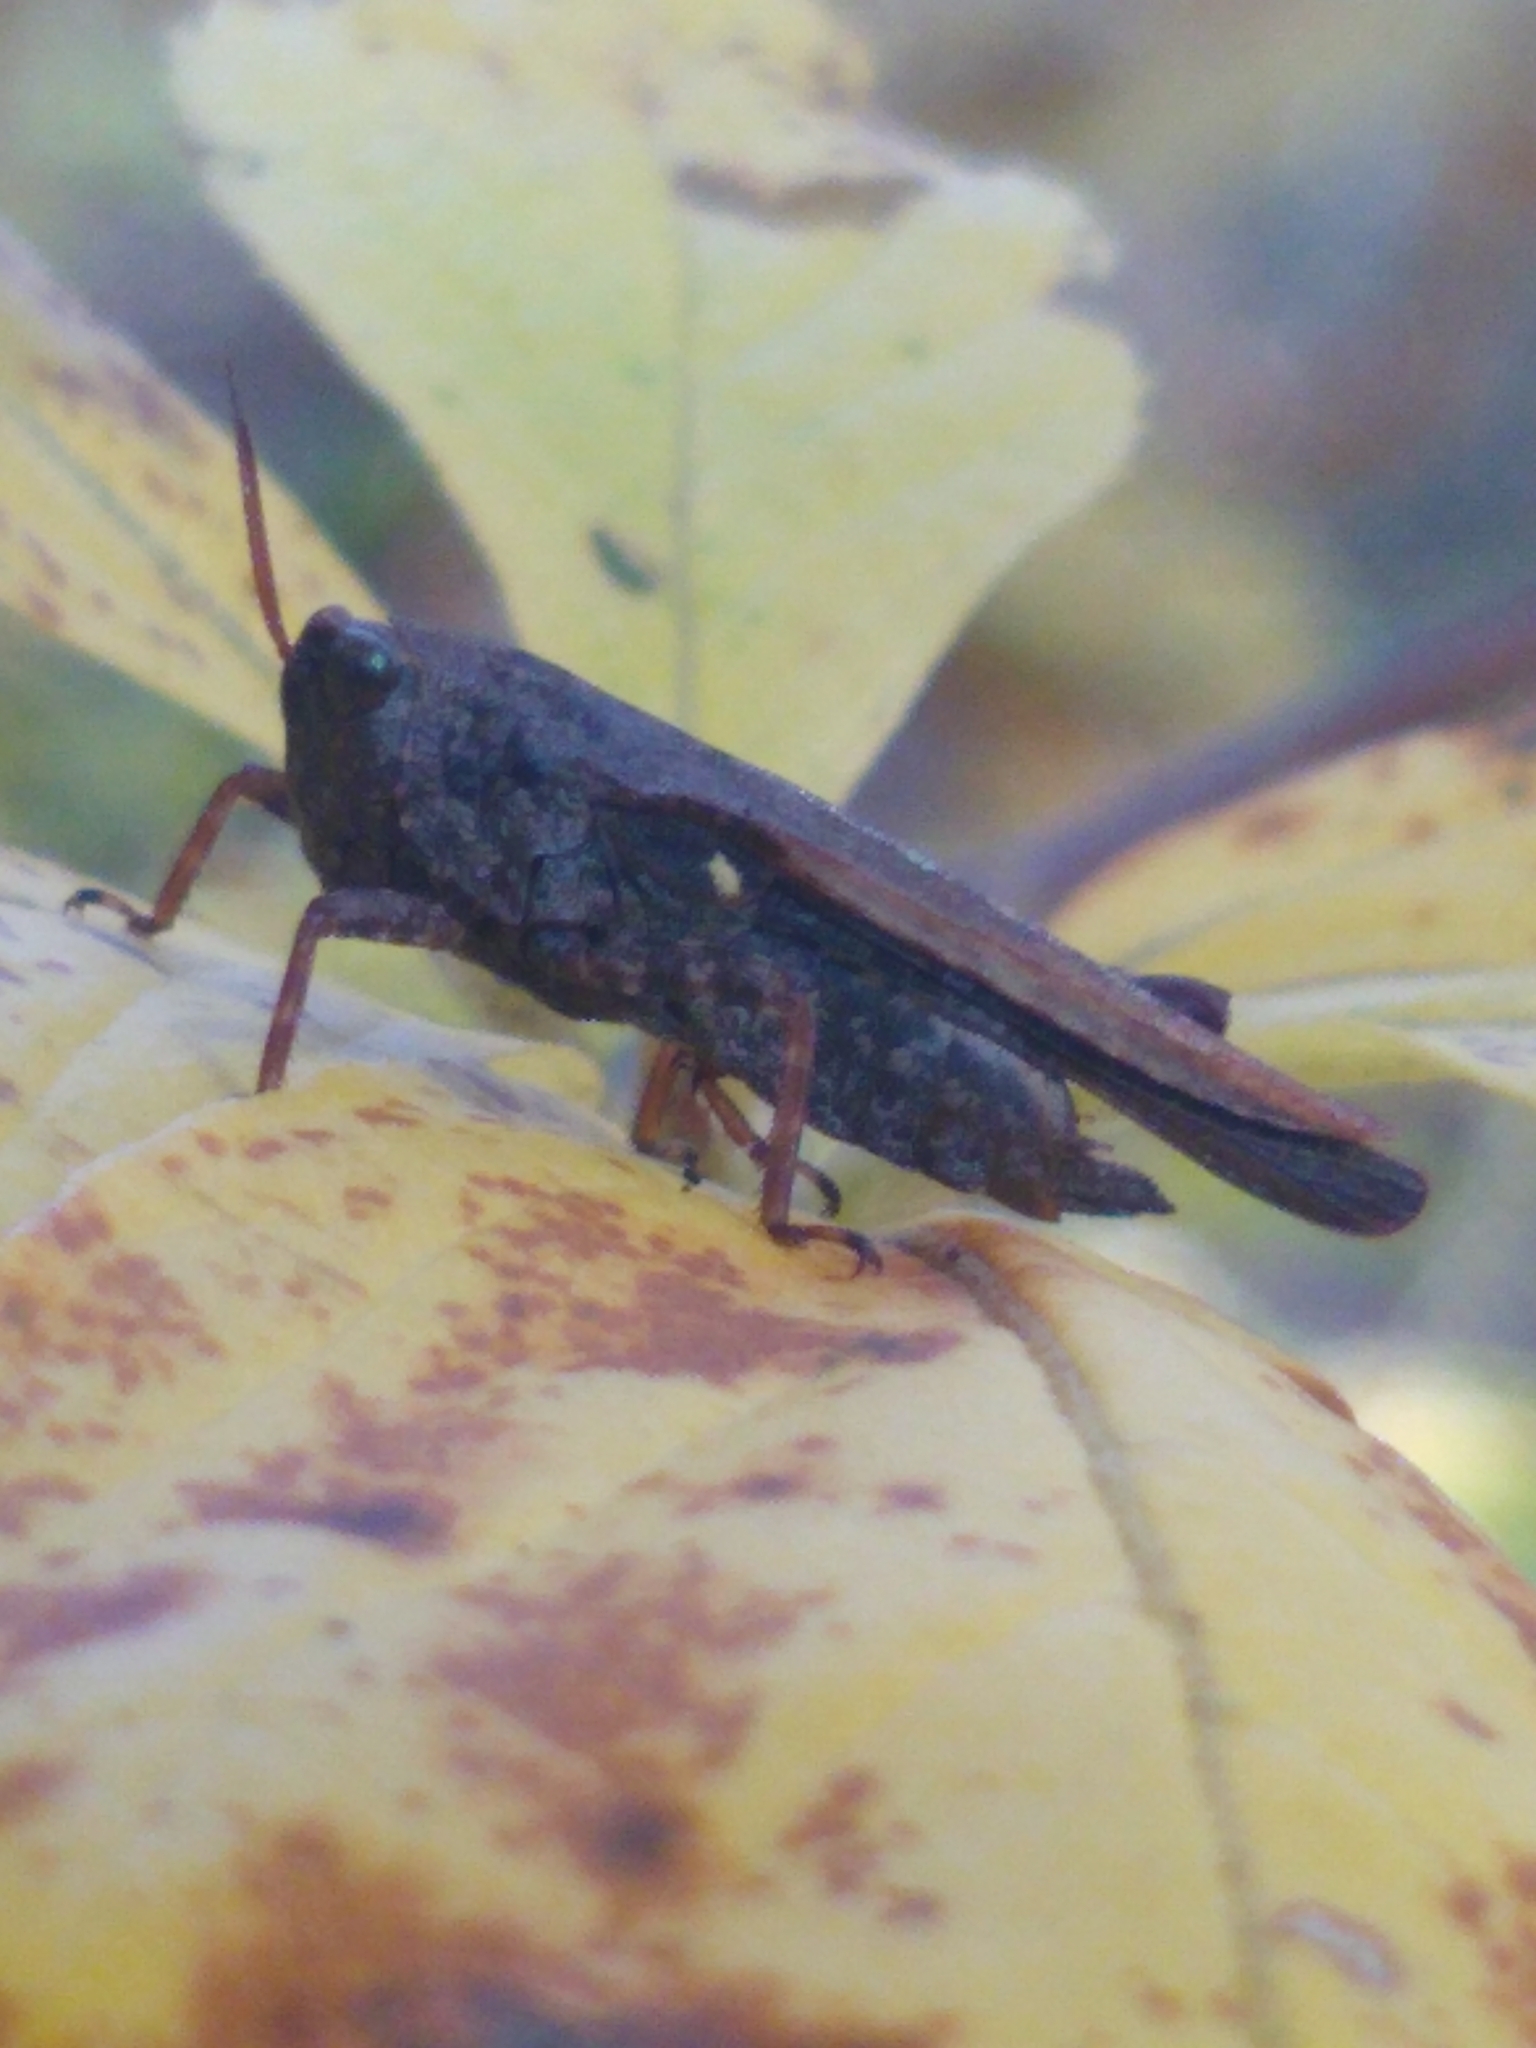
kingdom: Animalia
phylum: Arthropoda
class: Insecta
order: Orthoptera
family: Tetrigidae
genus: Tettigidea
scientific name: Tettigidea laterale
